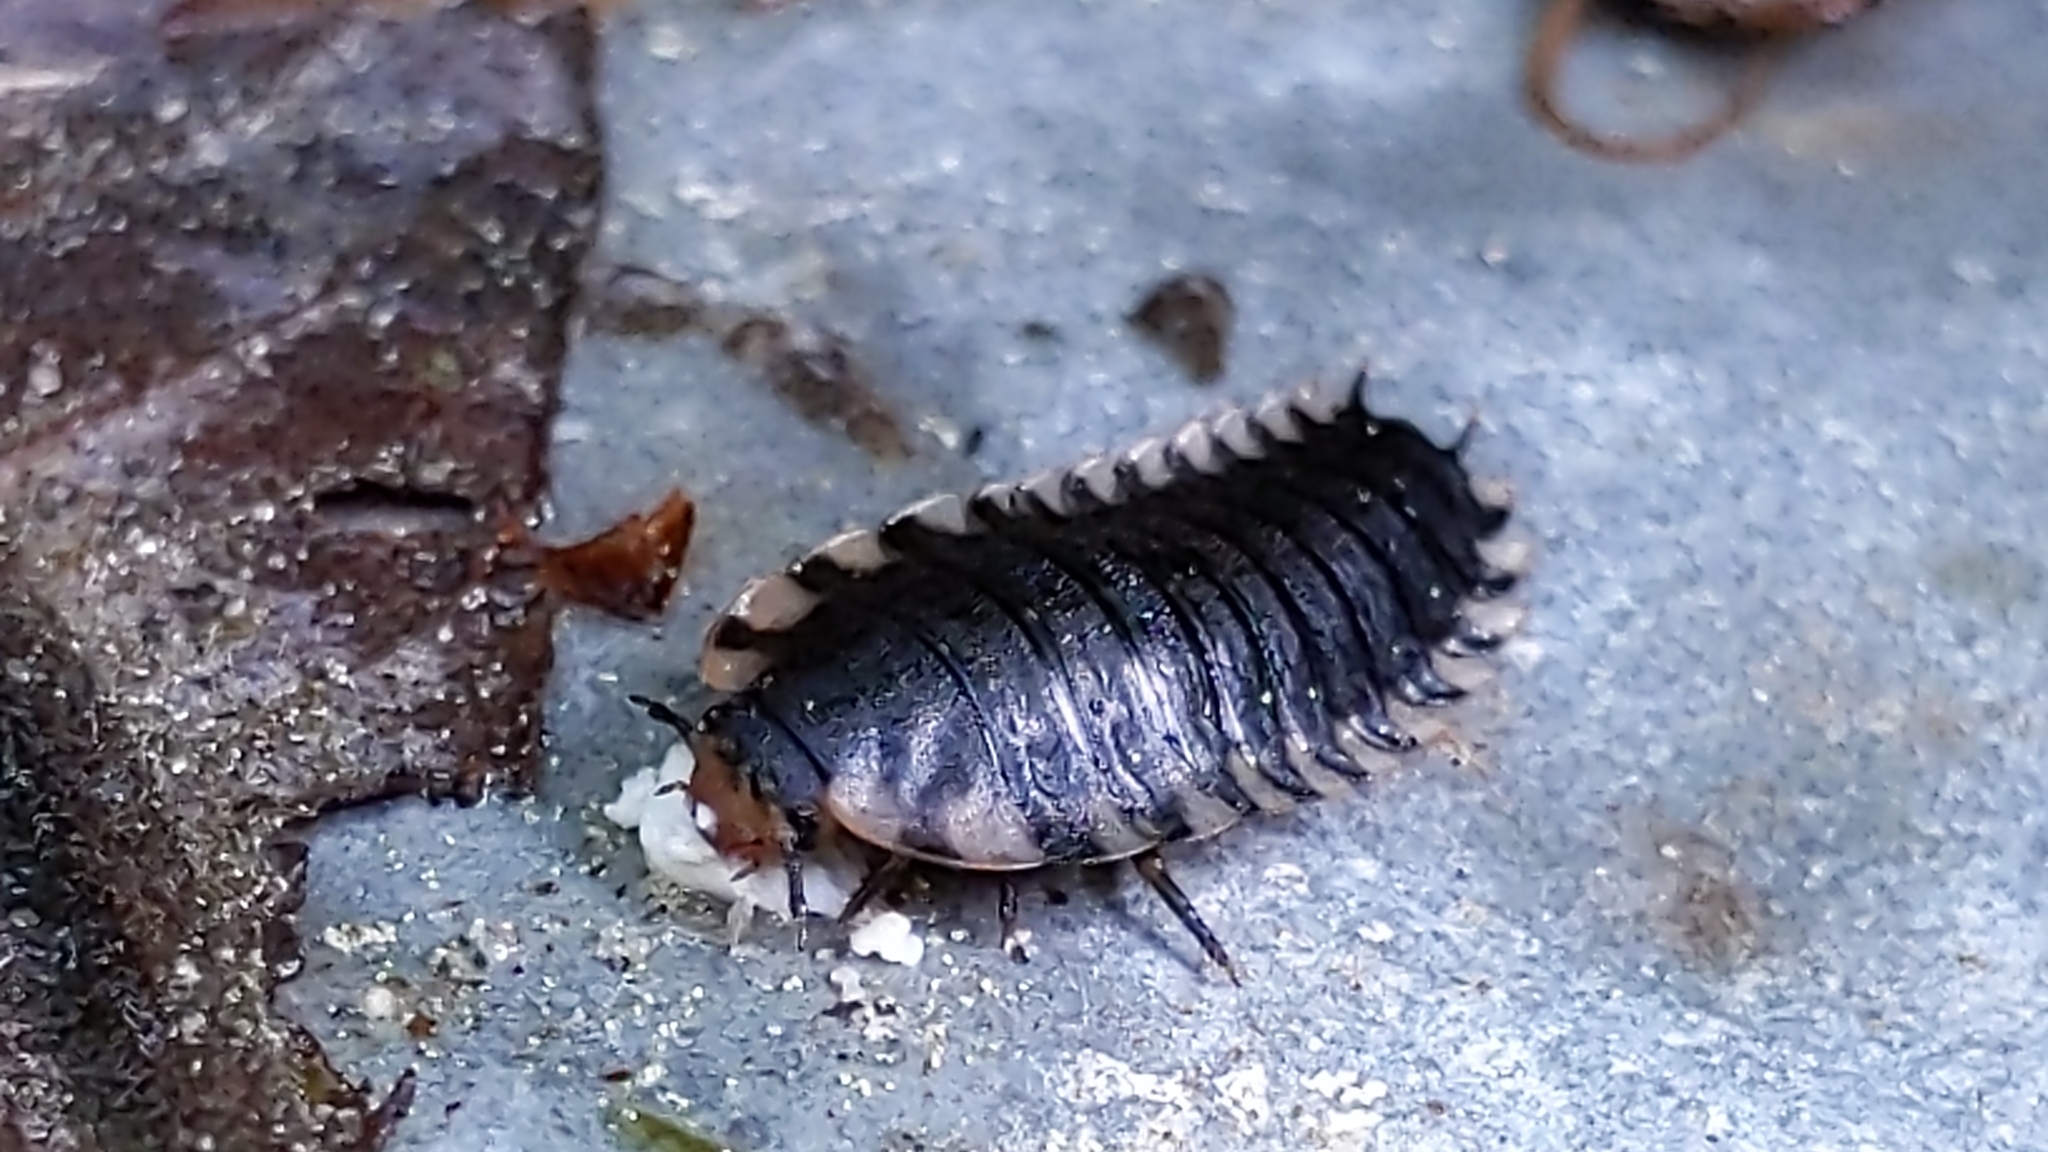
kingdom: Animalia
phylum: Arthropoda
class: Insecta
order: Coleoptera
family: Staphylinidae
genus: Oiceoptoma
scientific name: Oiceoptoma thoracicum
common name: Red-breasted carrion beetle
